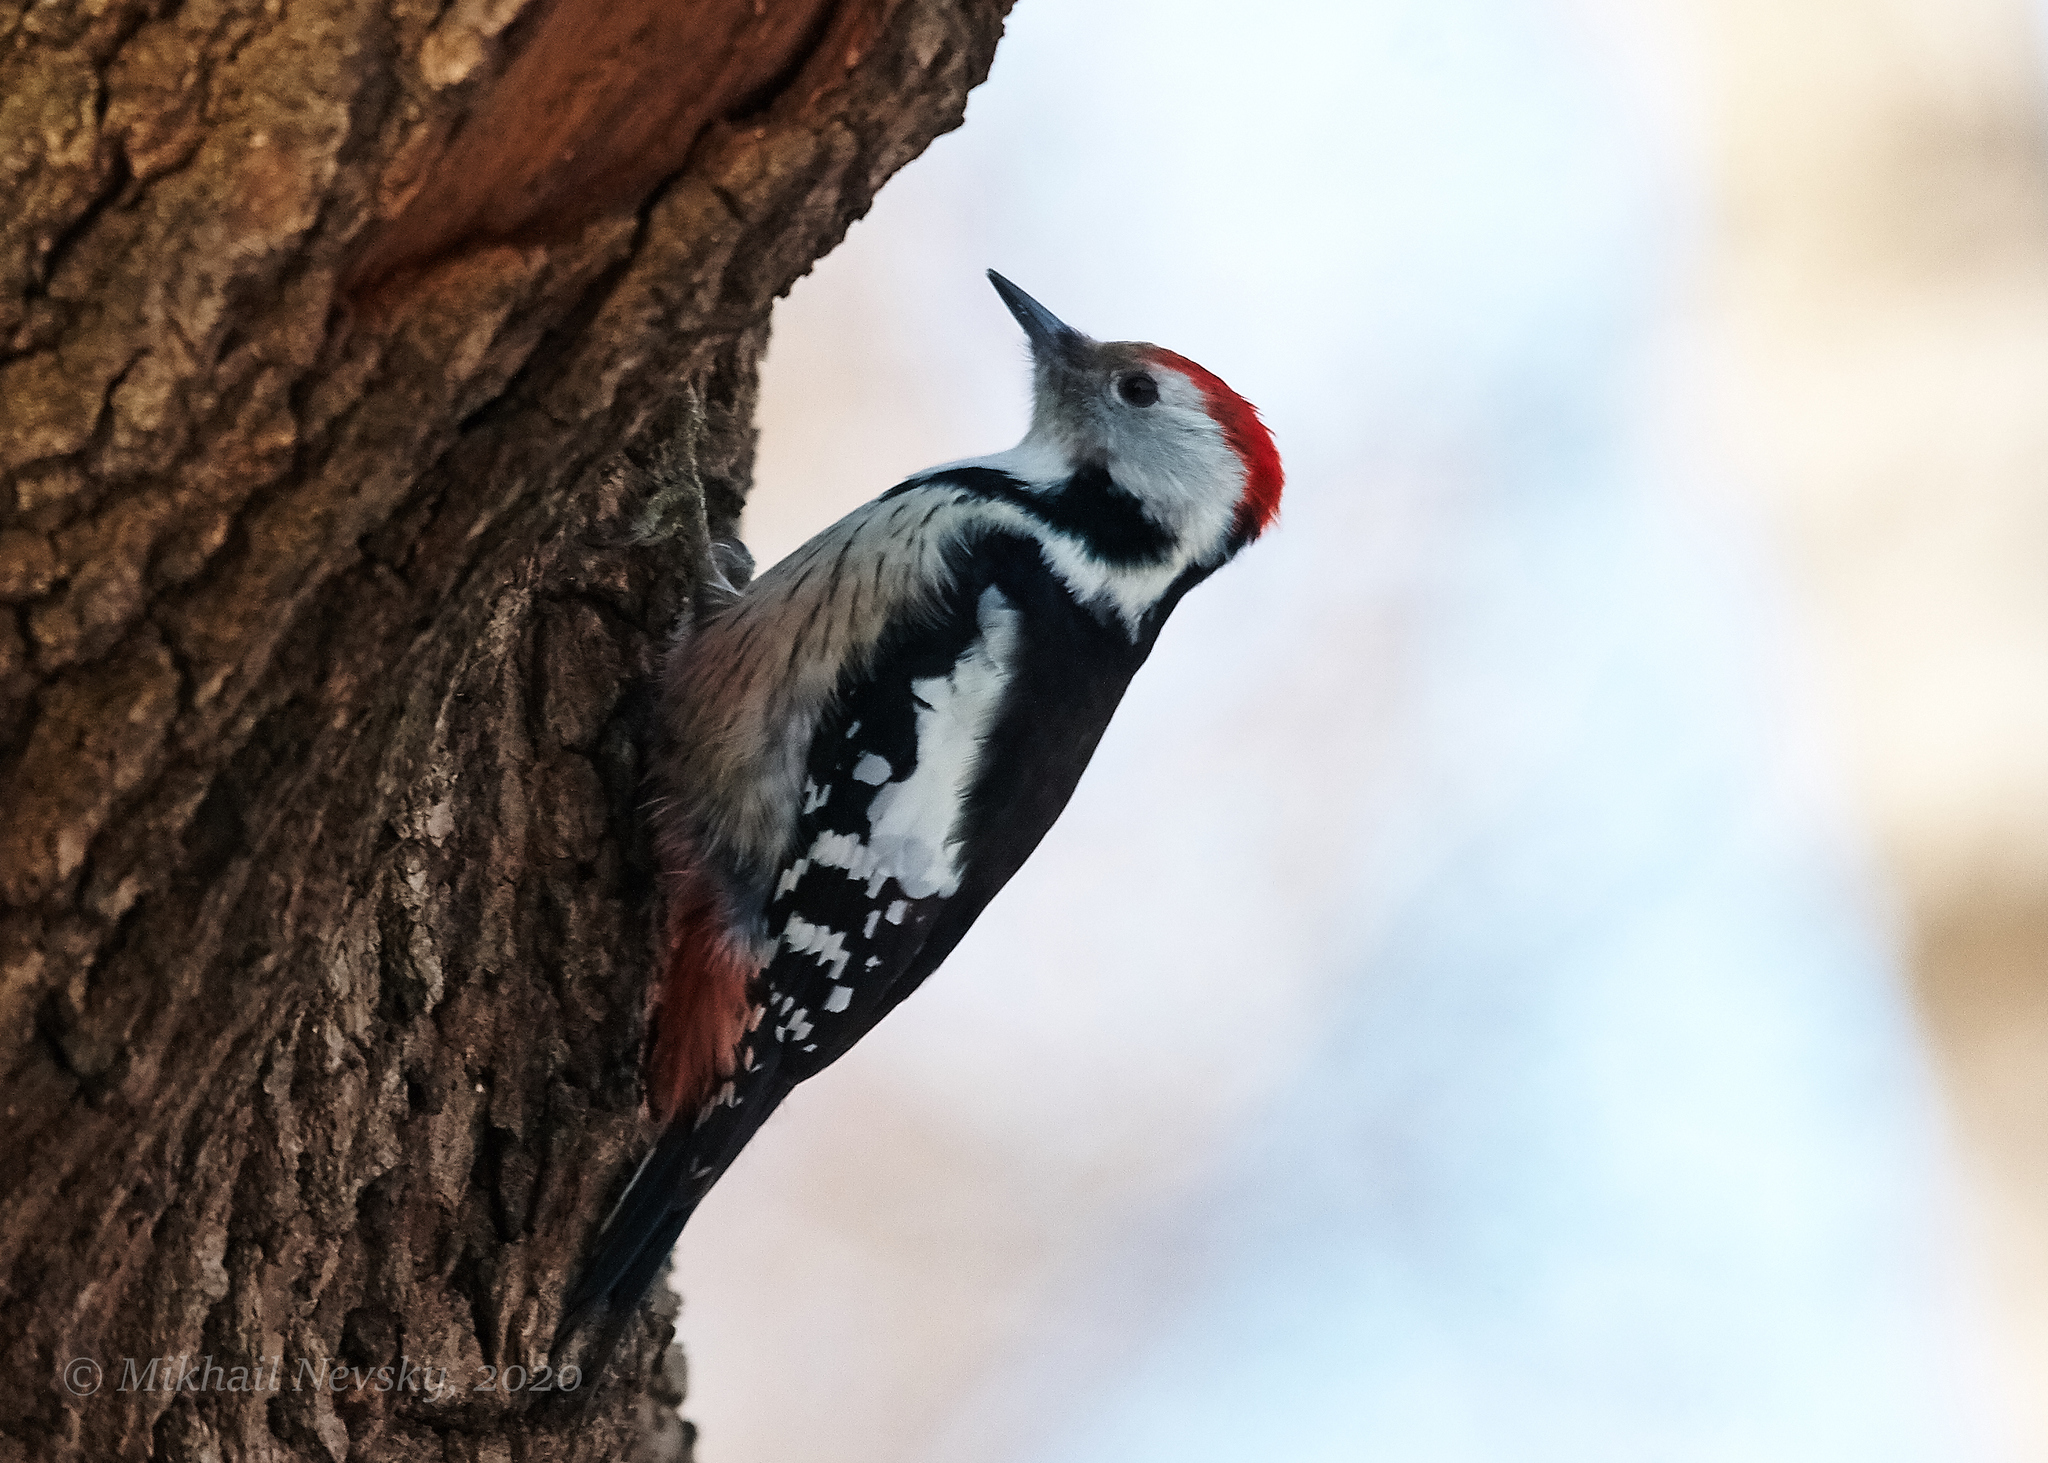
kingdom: Animalia
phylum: Chordata
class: Aves
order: Piciformes
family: Picidae
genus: Dendrocoptes
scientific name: Dendrocoptes medius
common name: Middle spotted woodpecker
